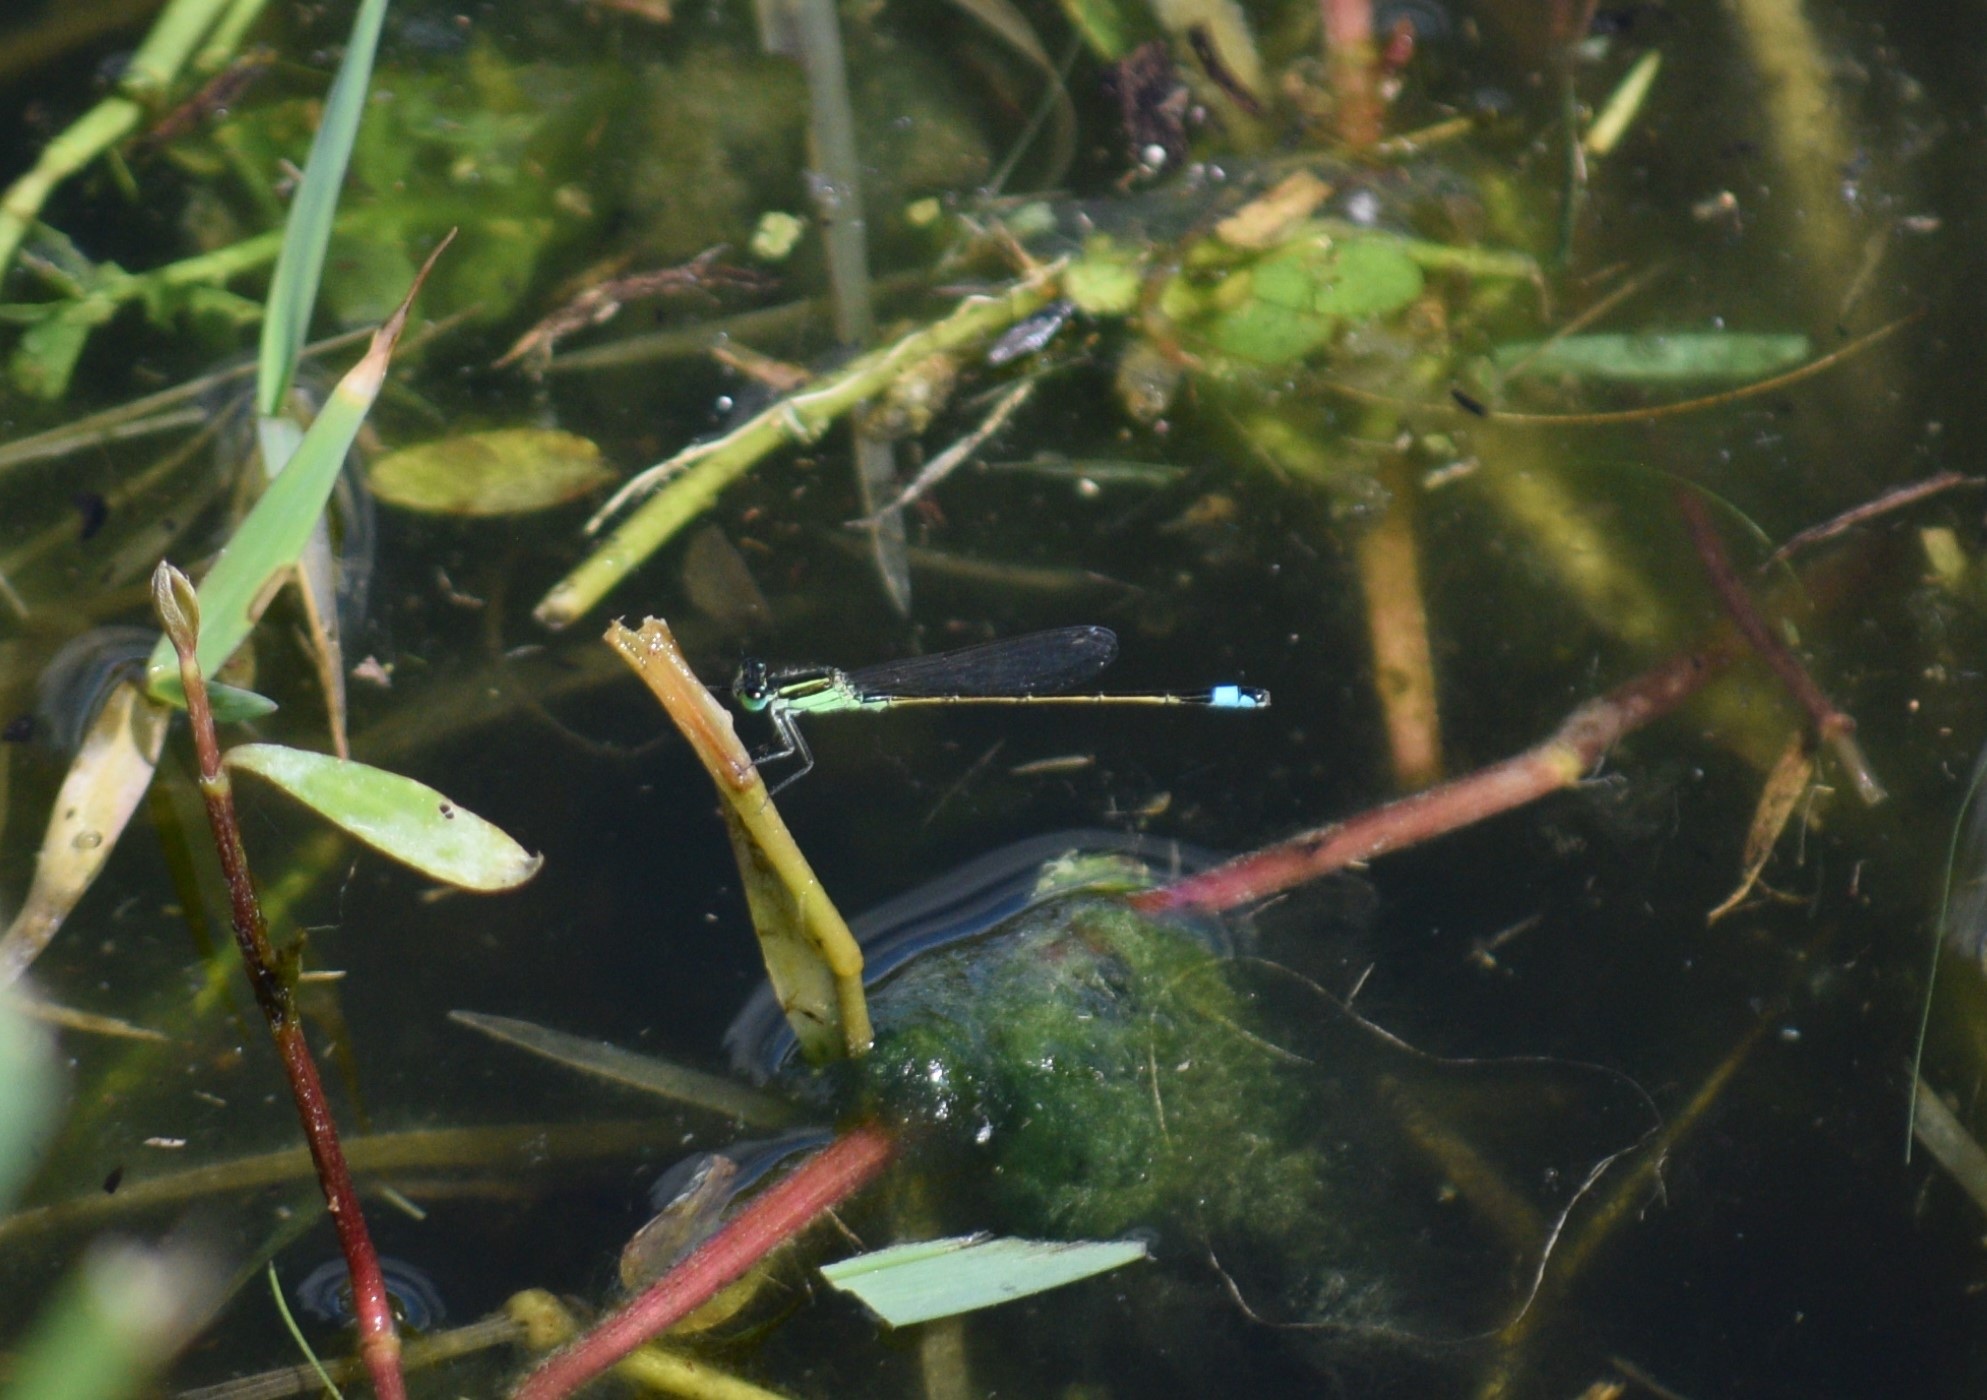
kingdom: Animalia
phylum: Arthropoda
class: Insecta
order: Odonata
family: Coenagrionidae
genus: Ischnura
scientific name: Ischnura ramburii
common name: Rambur's forktail
